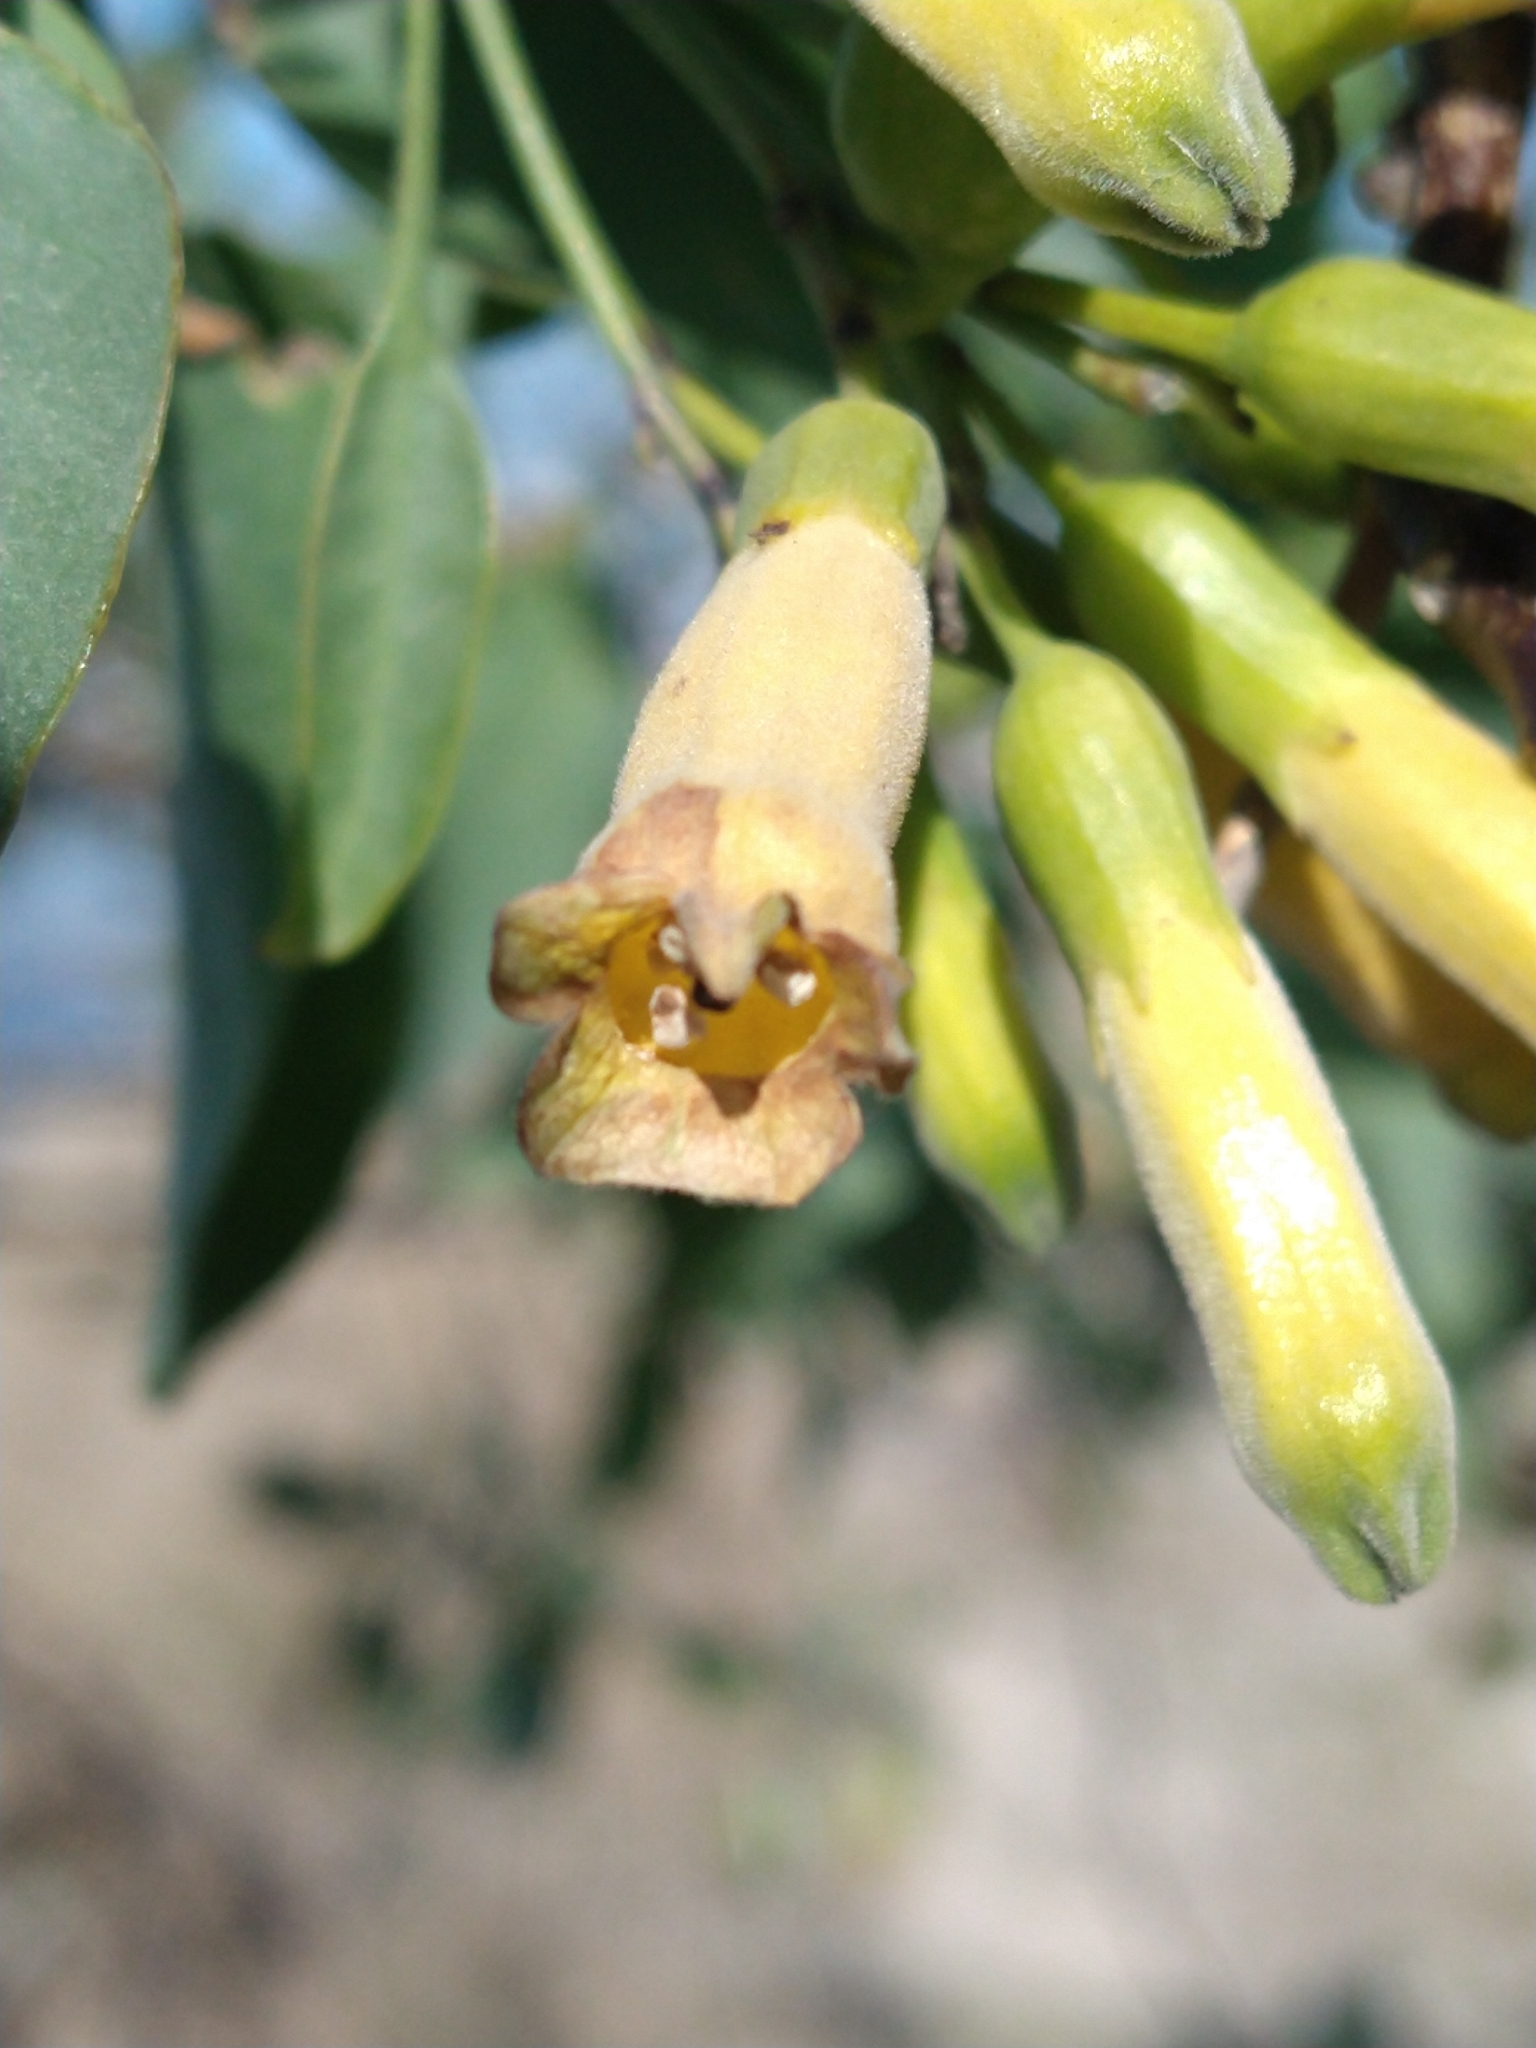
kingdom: Plantae
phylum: Tracheophyta
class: Magnoliopsida
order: Solanales
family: Solanaceae
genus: Nicotiana
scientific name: Nicotiana glauca
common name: Tree tobacco
